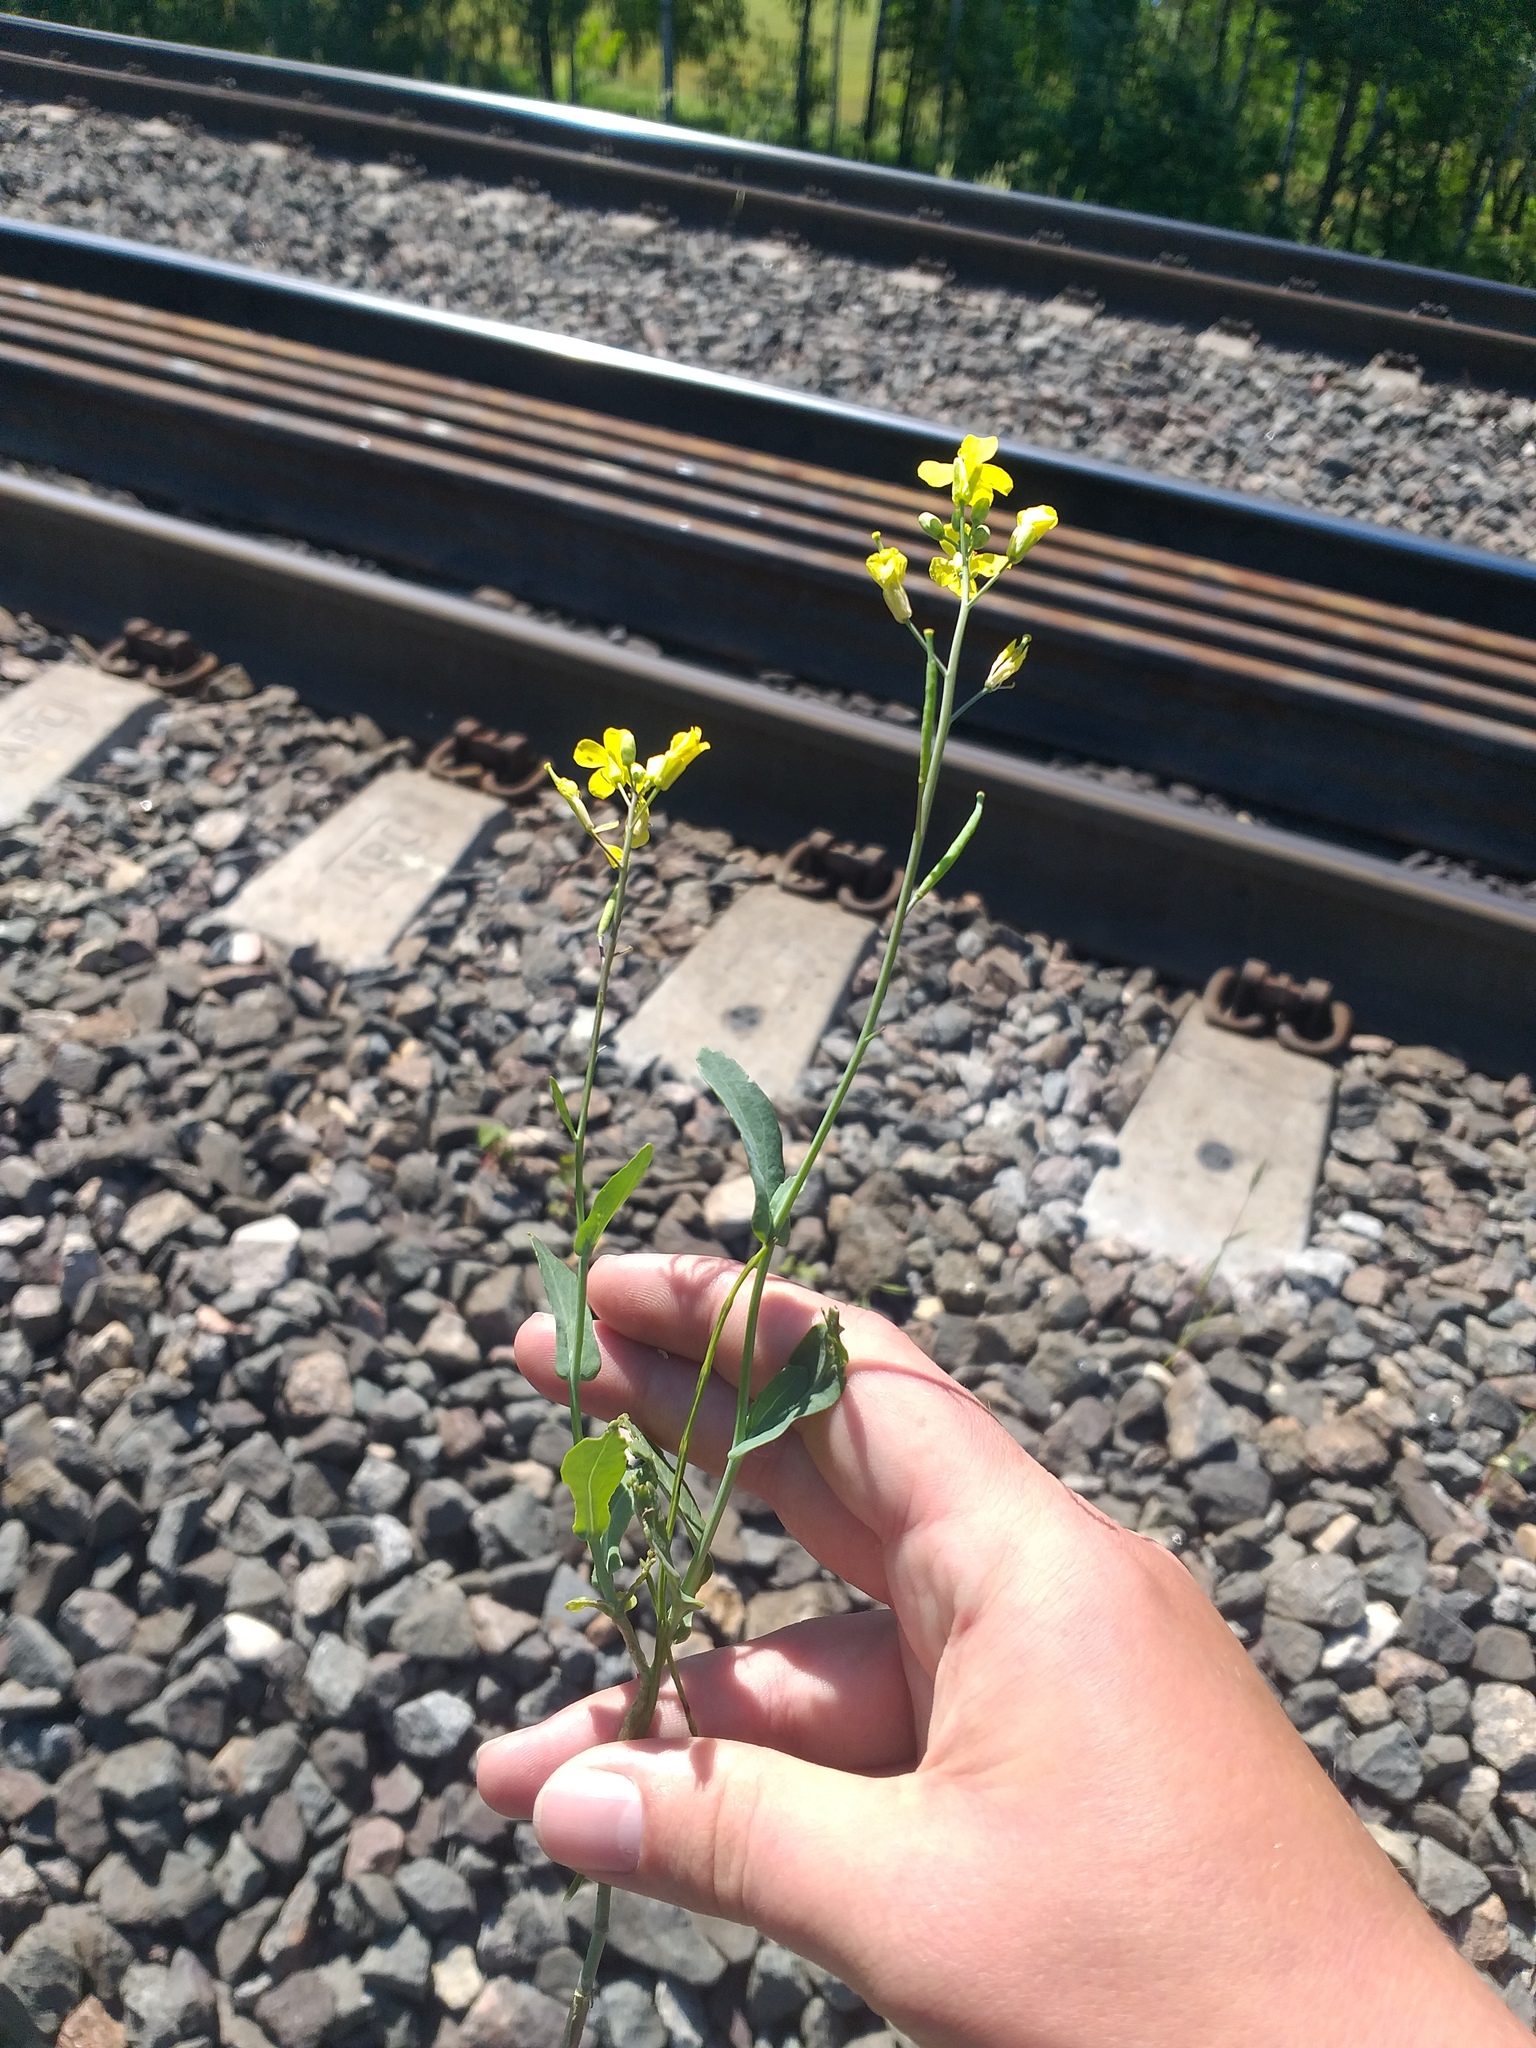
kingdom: Plantae
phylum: Tracheophyta
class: Magnoliopsida
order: Brassicales
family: Brassicaceae
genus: Brassica
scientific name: Brassica napus
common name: Rape
